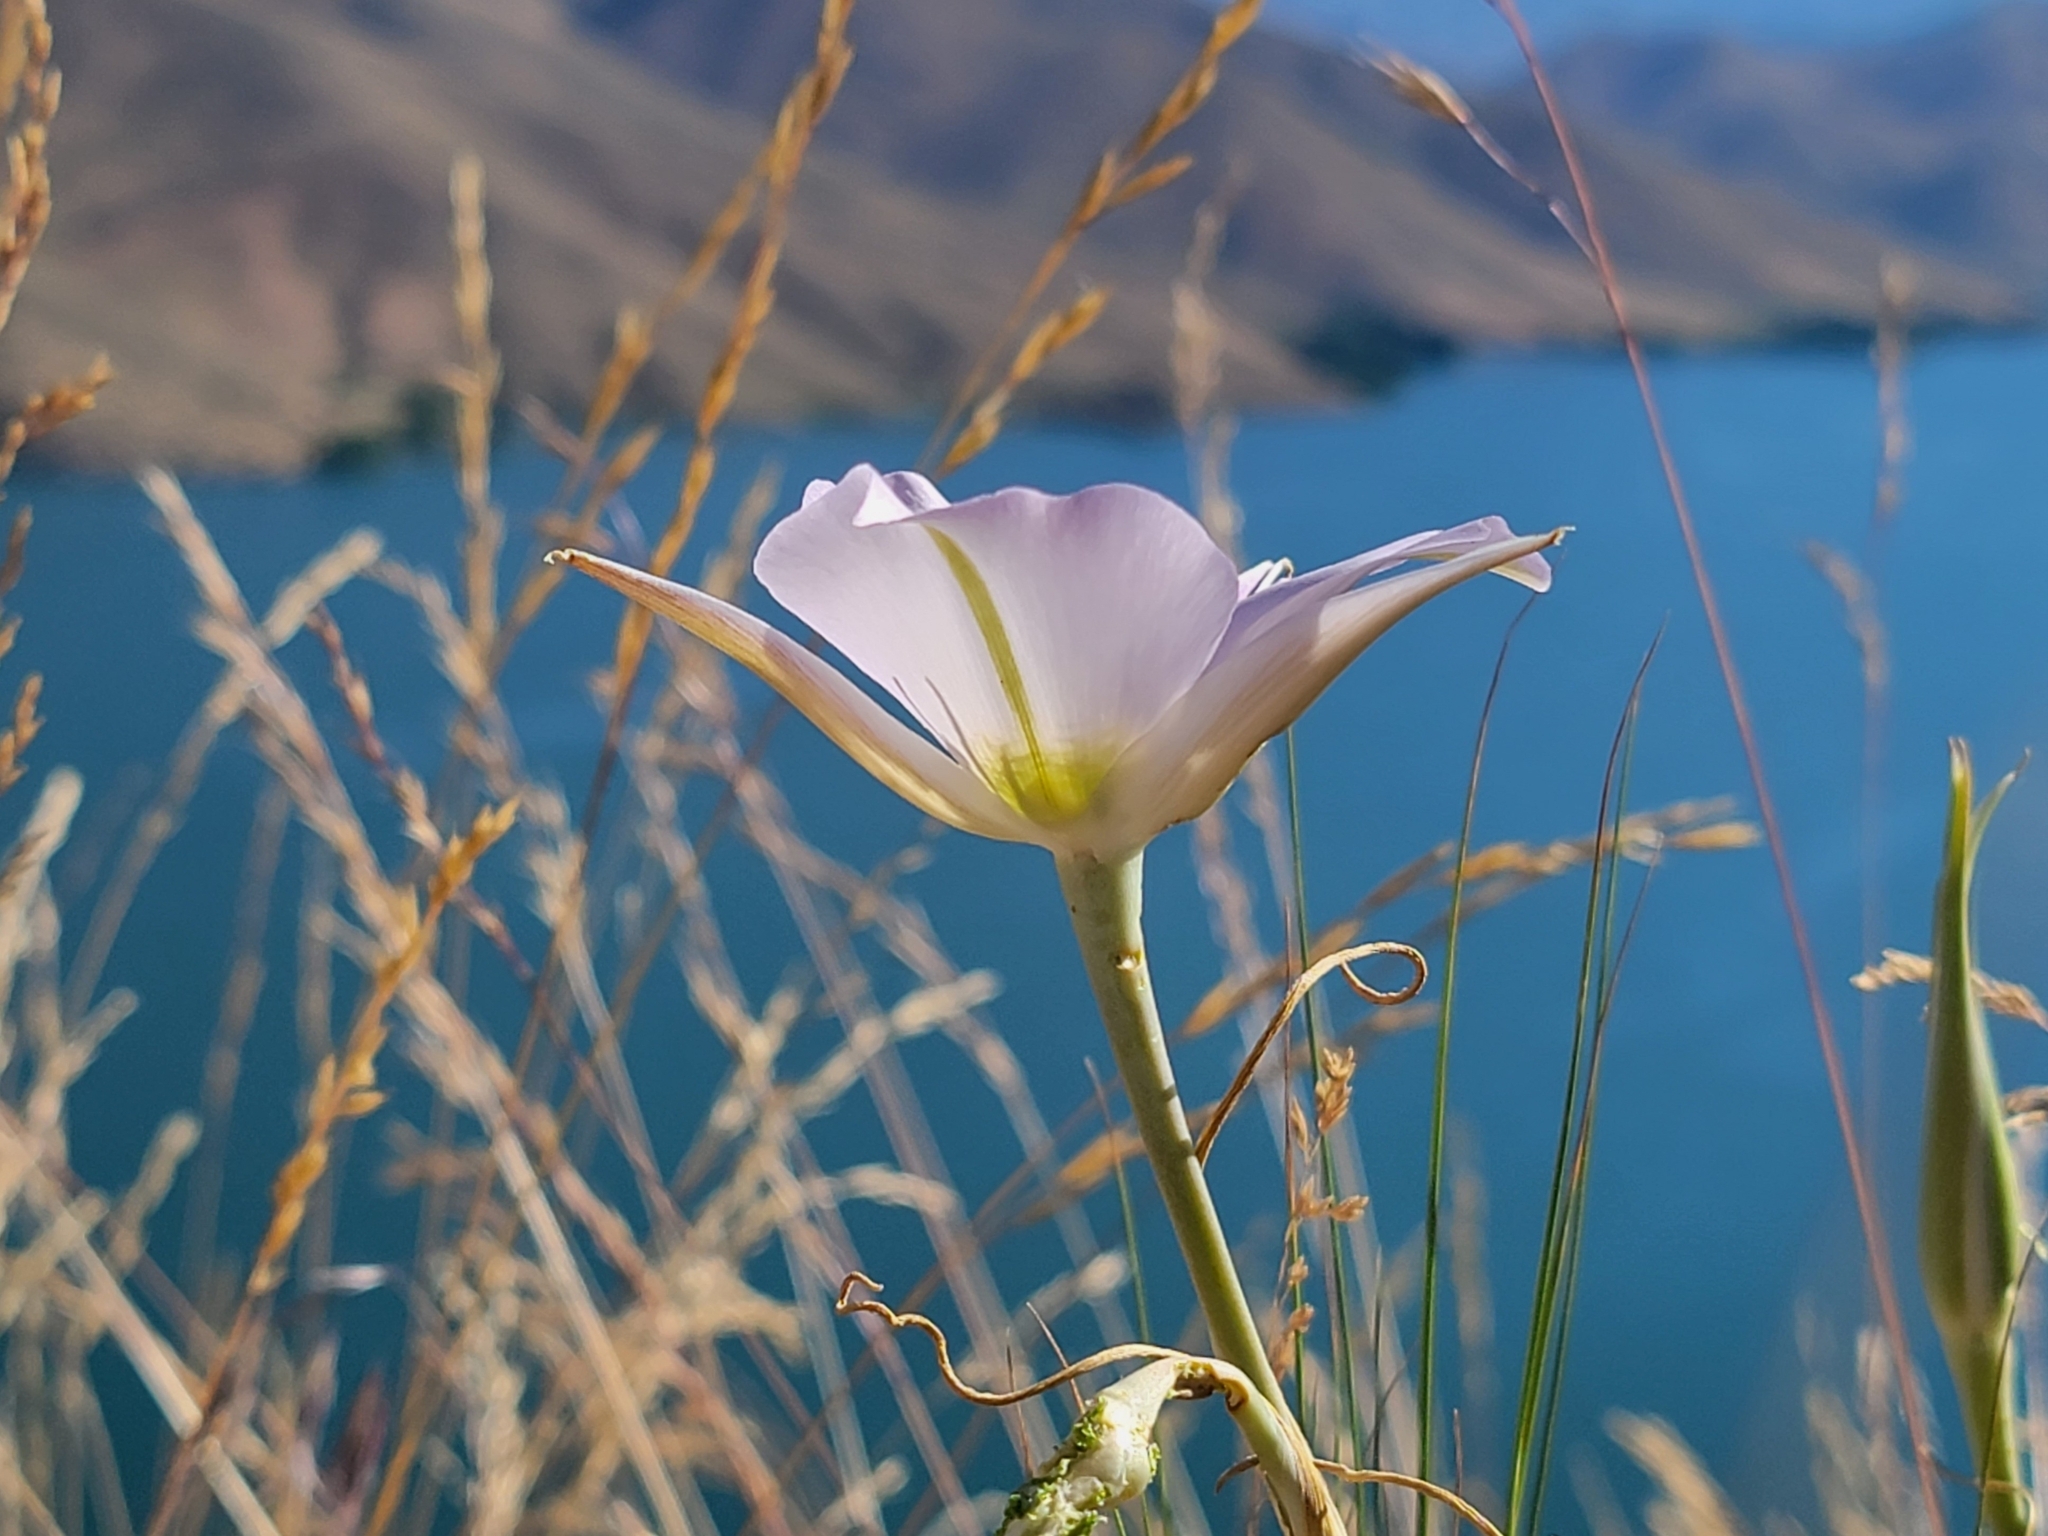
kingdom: Plantae
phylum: Tracheophyta
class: Liliopsida
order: Liliales
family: Liliaceae
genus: Calochortus
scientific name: Calochortus macrocarpus
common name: Green-band mariposa lily
